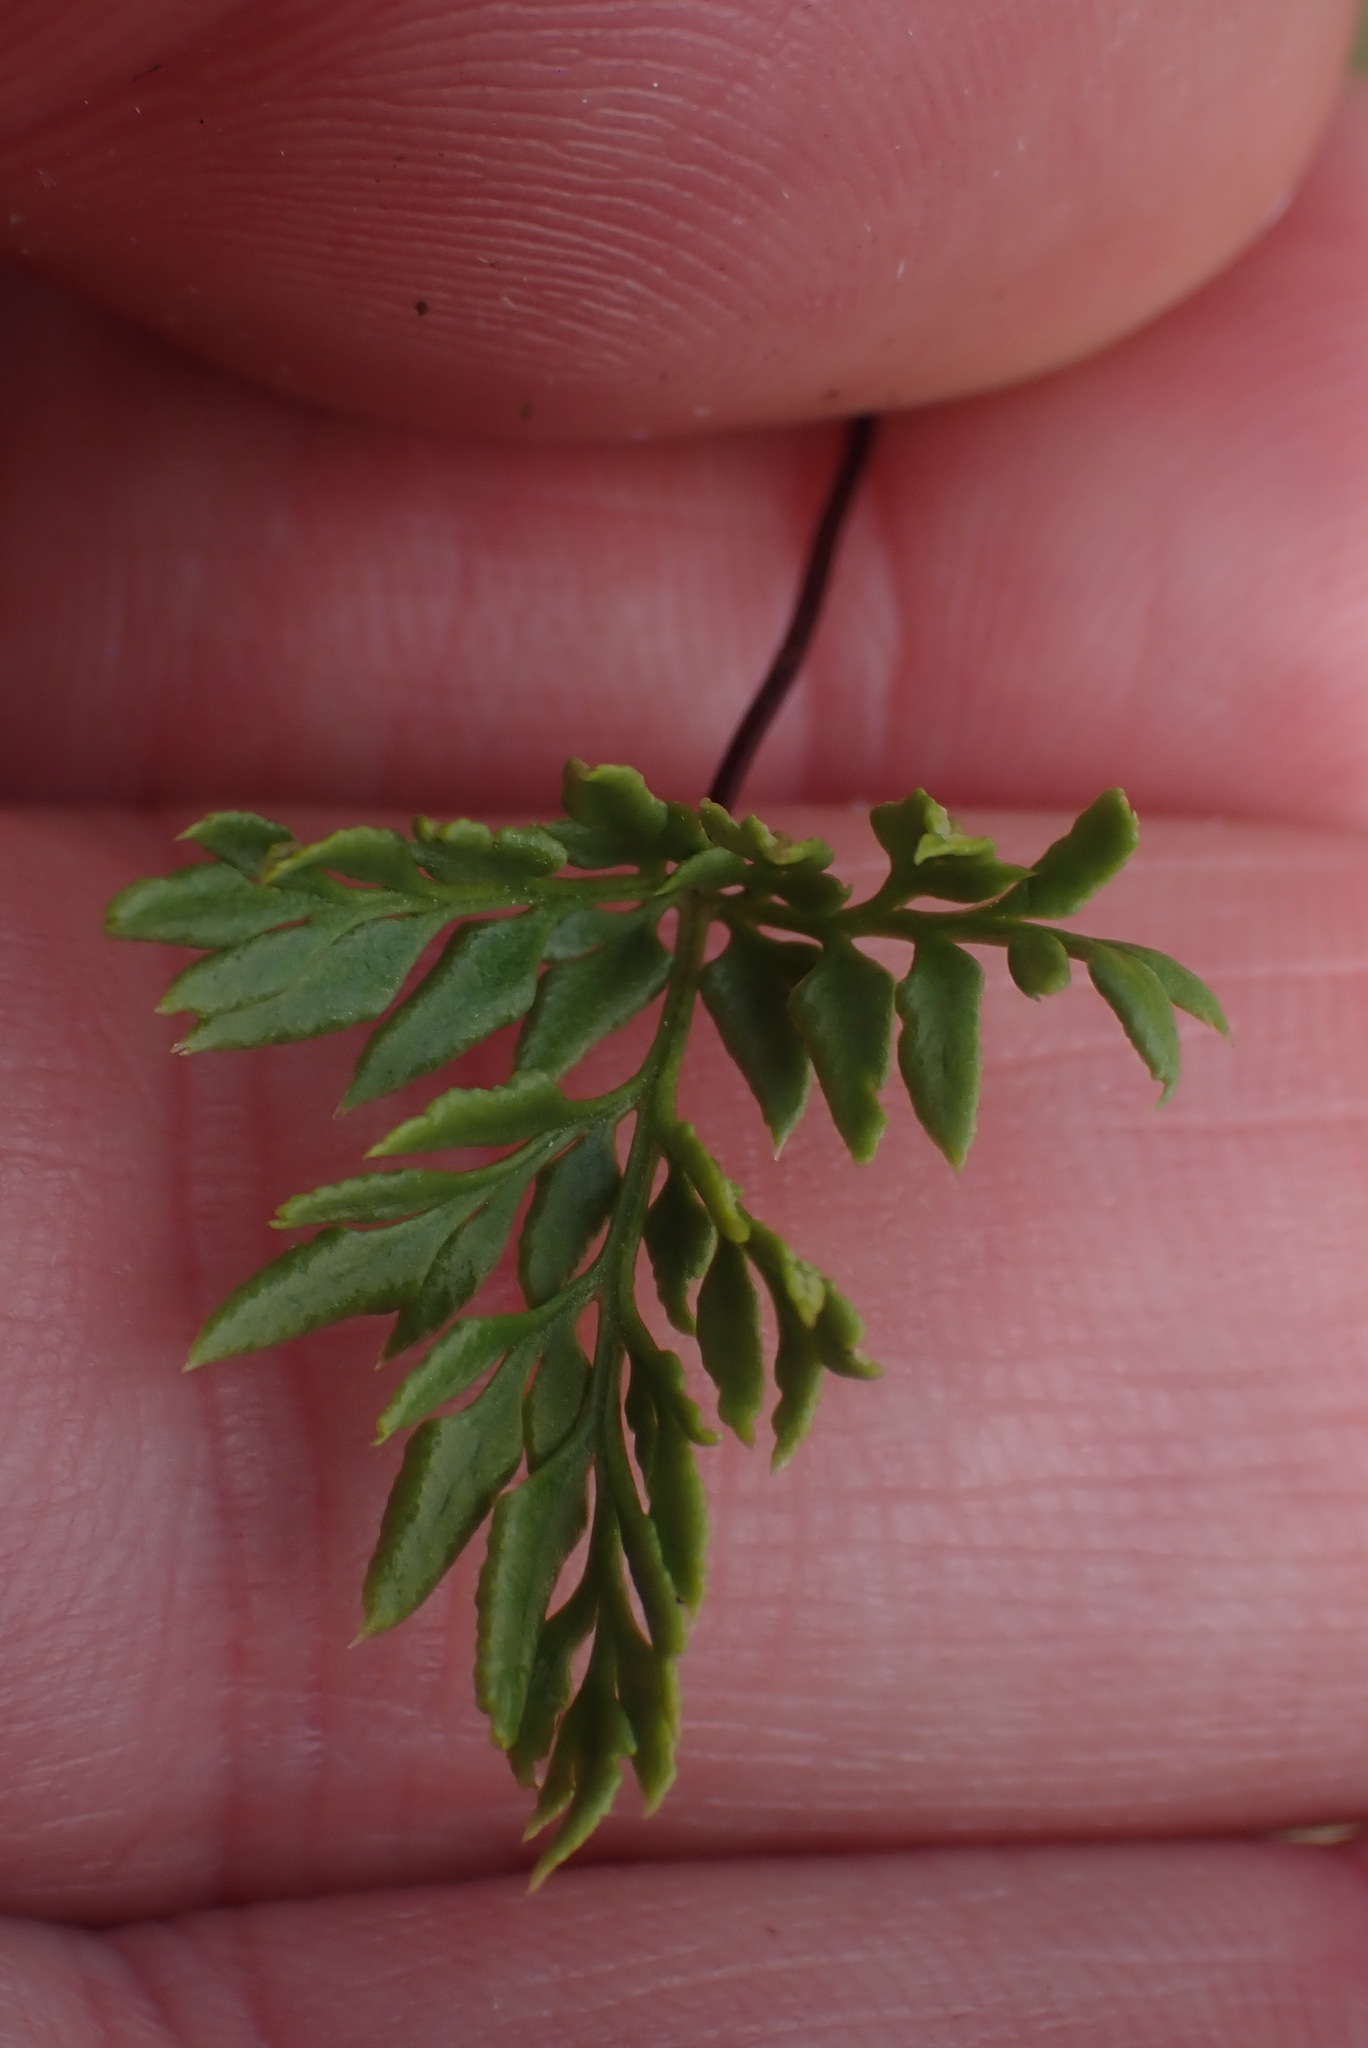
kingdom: Plantae
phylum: Tracheophyta
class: Polypodiopsida
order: Polypodiales
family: Pteridaceae
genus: Aspidotis
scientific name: Aspidotis densa
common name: Indian's dream
